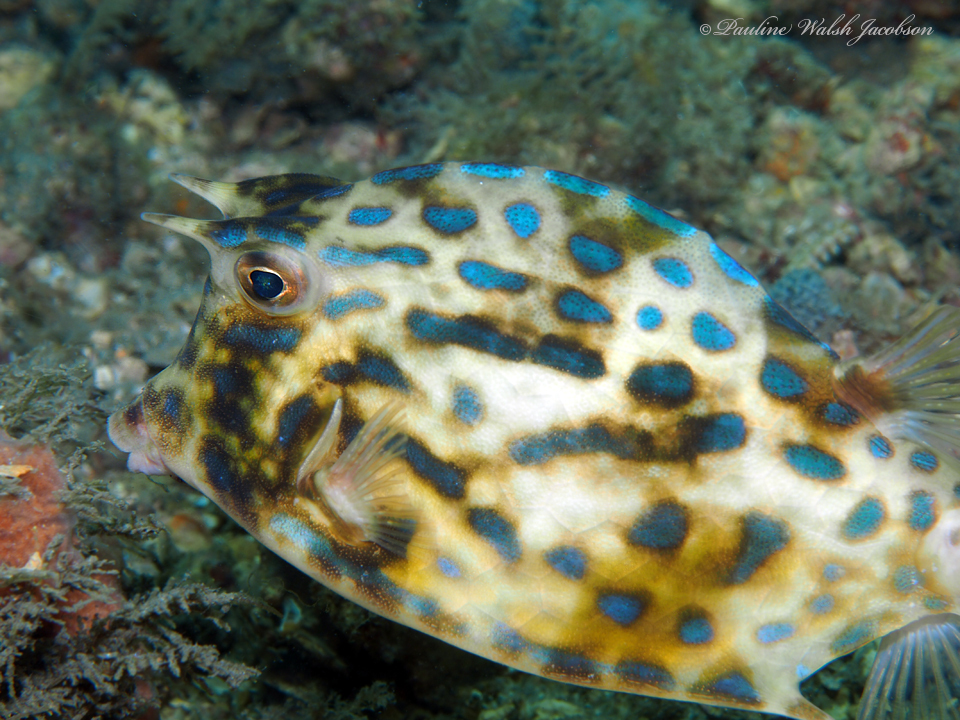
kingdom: Animalia
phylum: Chordata
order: Tetraodontiformes
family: Ostraciidae
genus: Acanthostracion
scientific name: Acanthostracion quadricornis
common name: Scrawled cowfish
